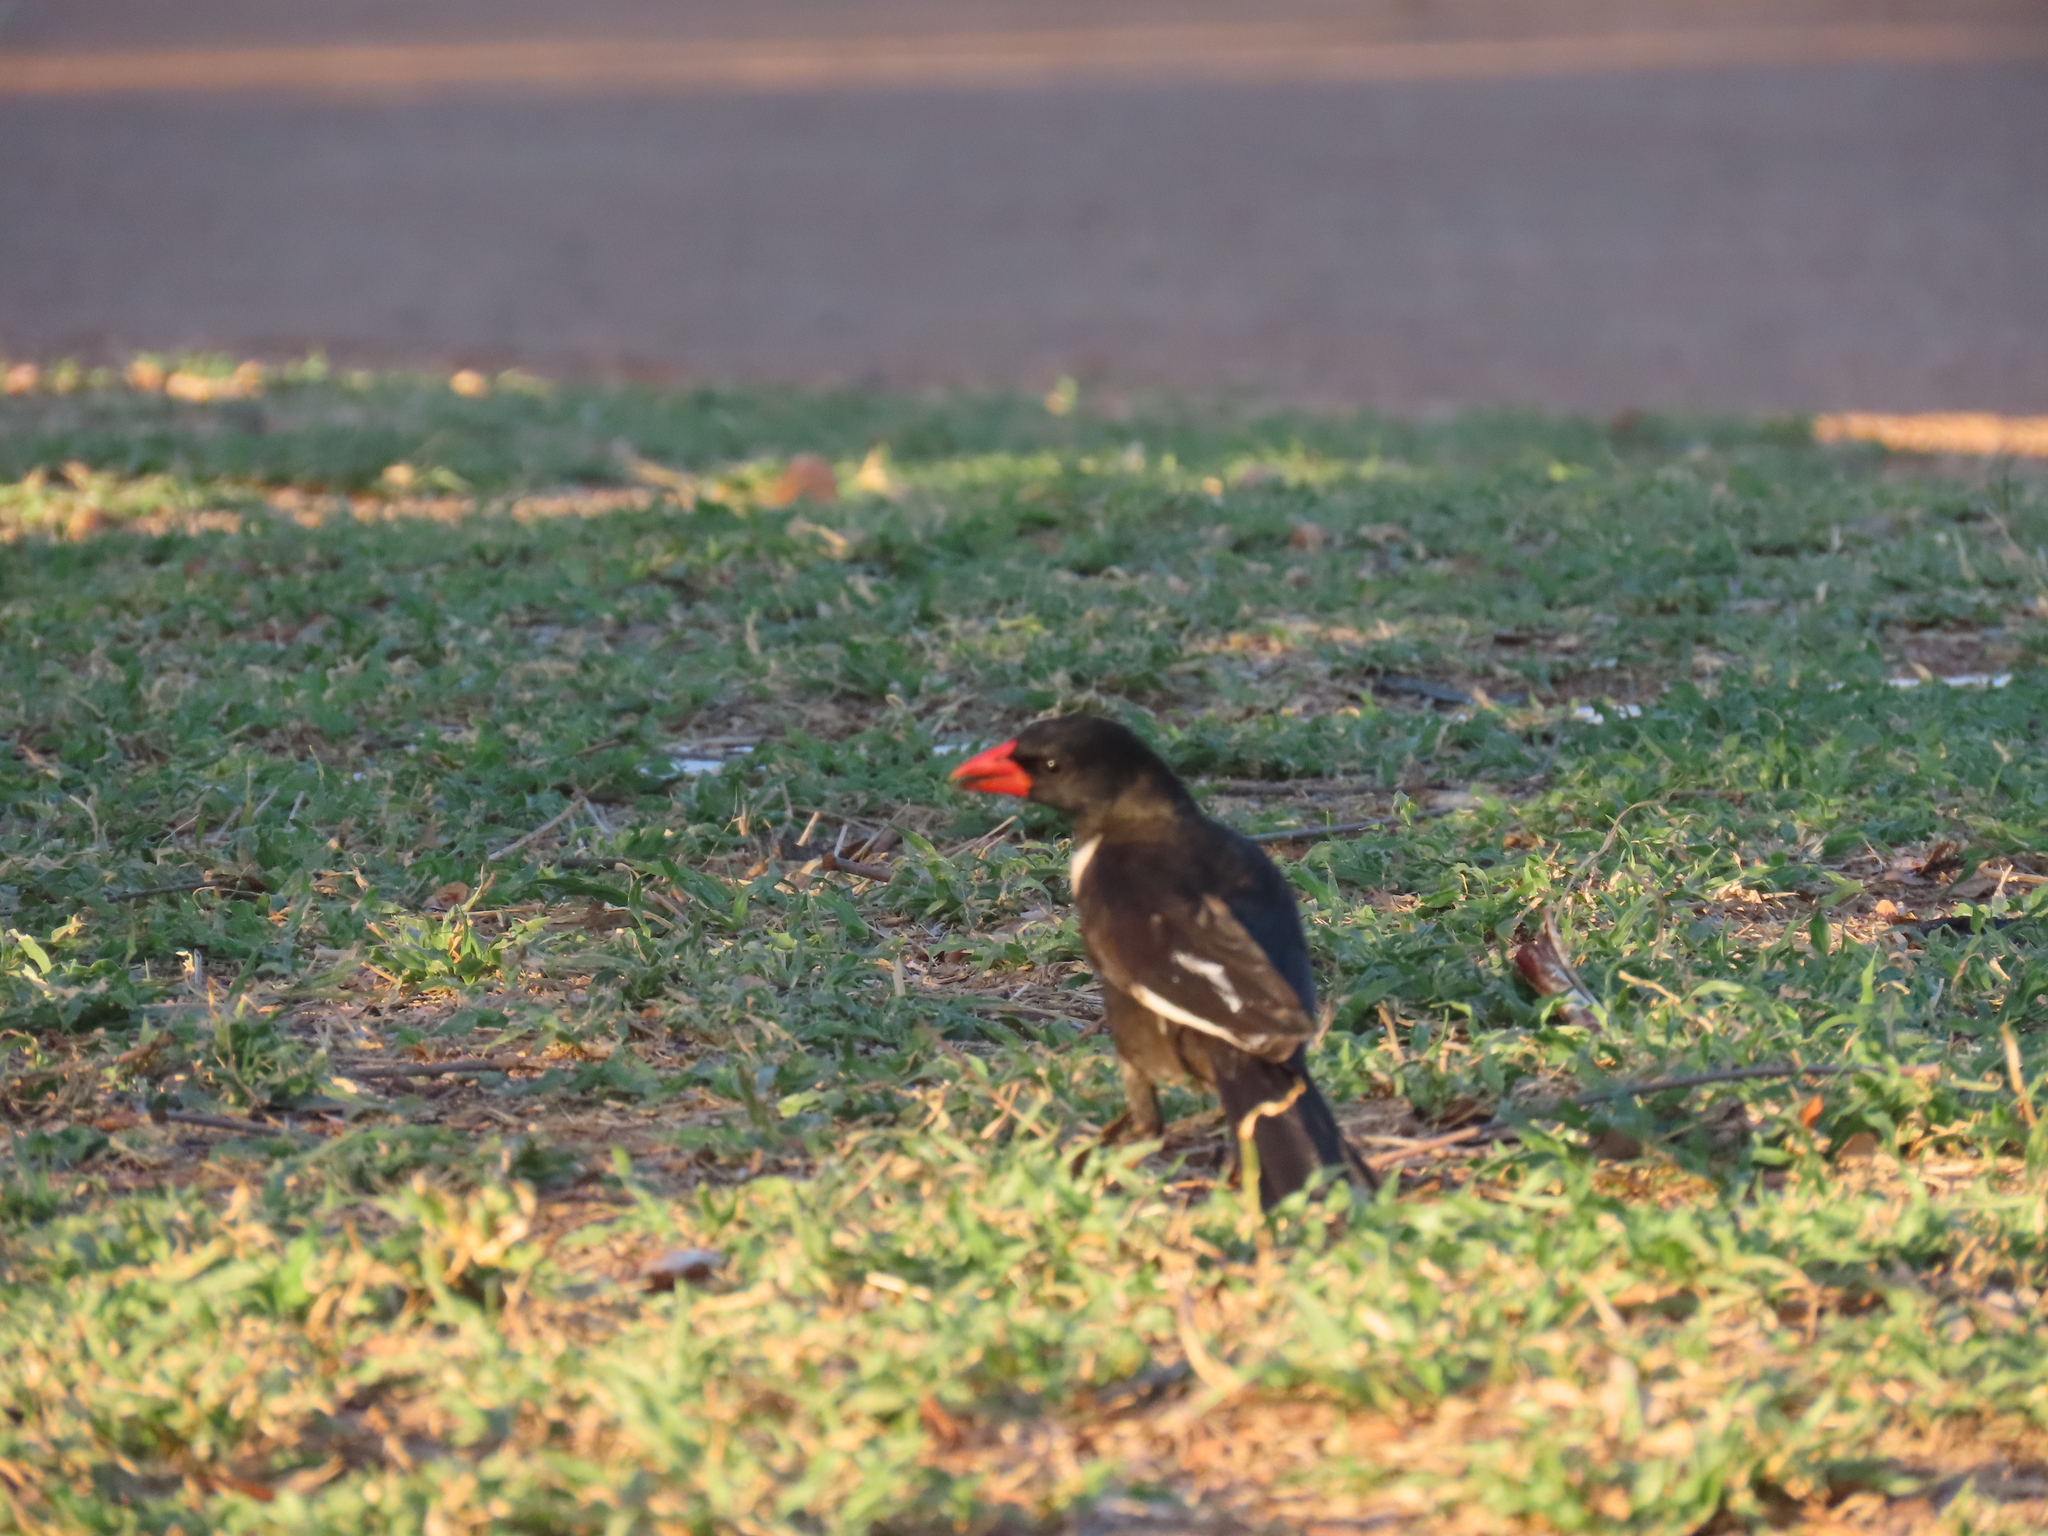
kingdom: Animalia
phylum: Chordata
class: Aves
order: Passeriformes
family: Ploceidae
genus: Bubalornis
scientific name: Bubalornis niger
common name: Red-billed buffalo weaver
